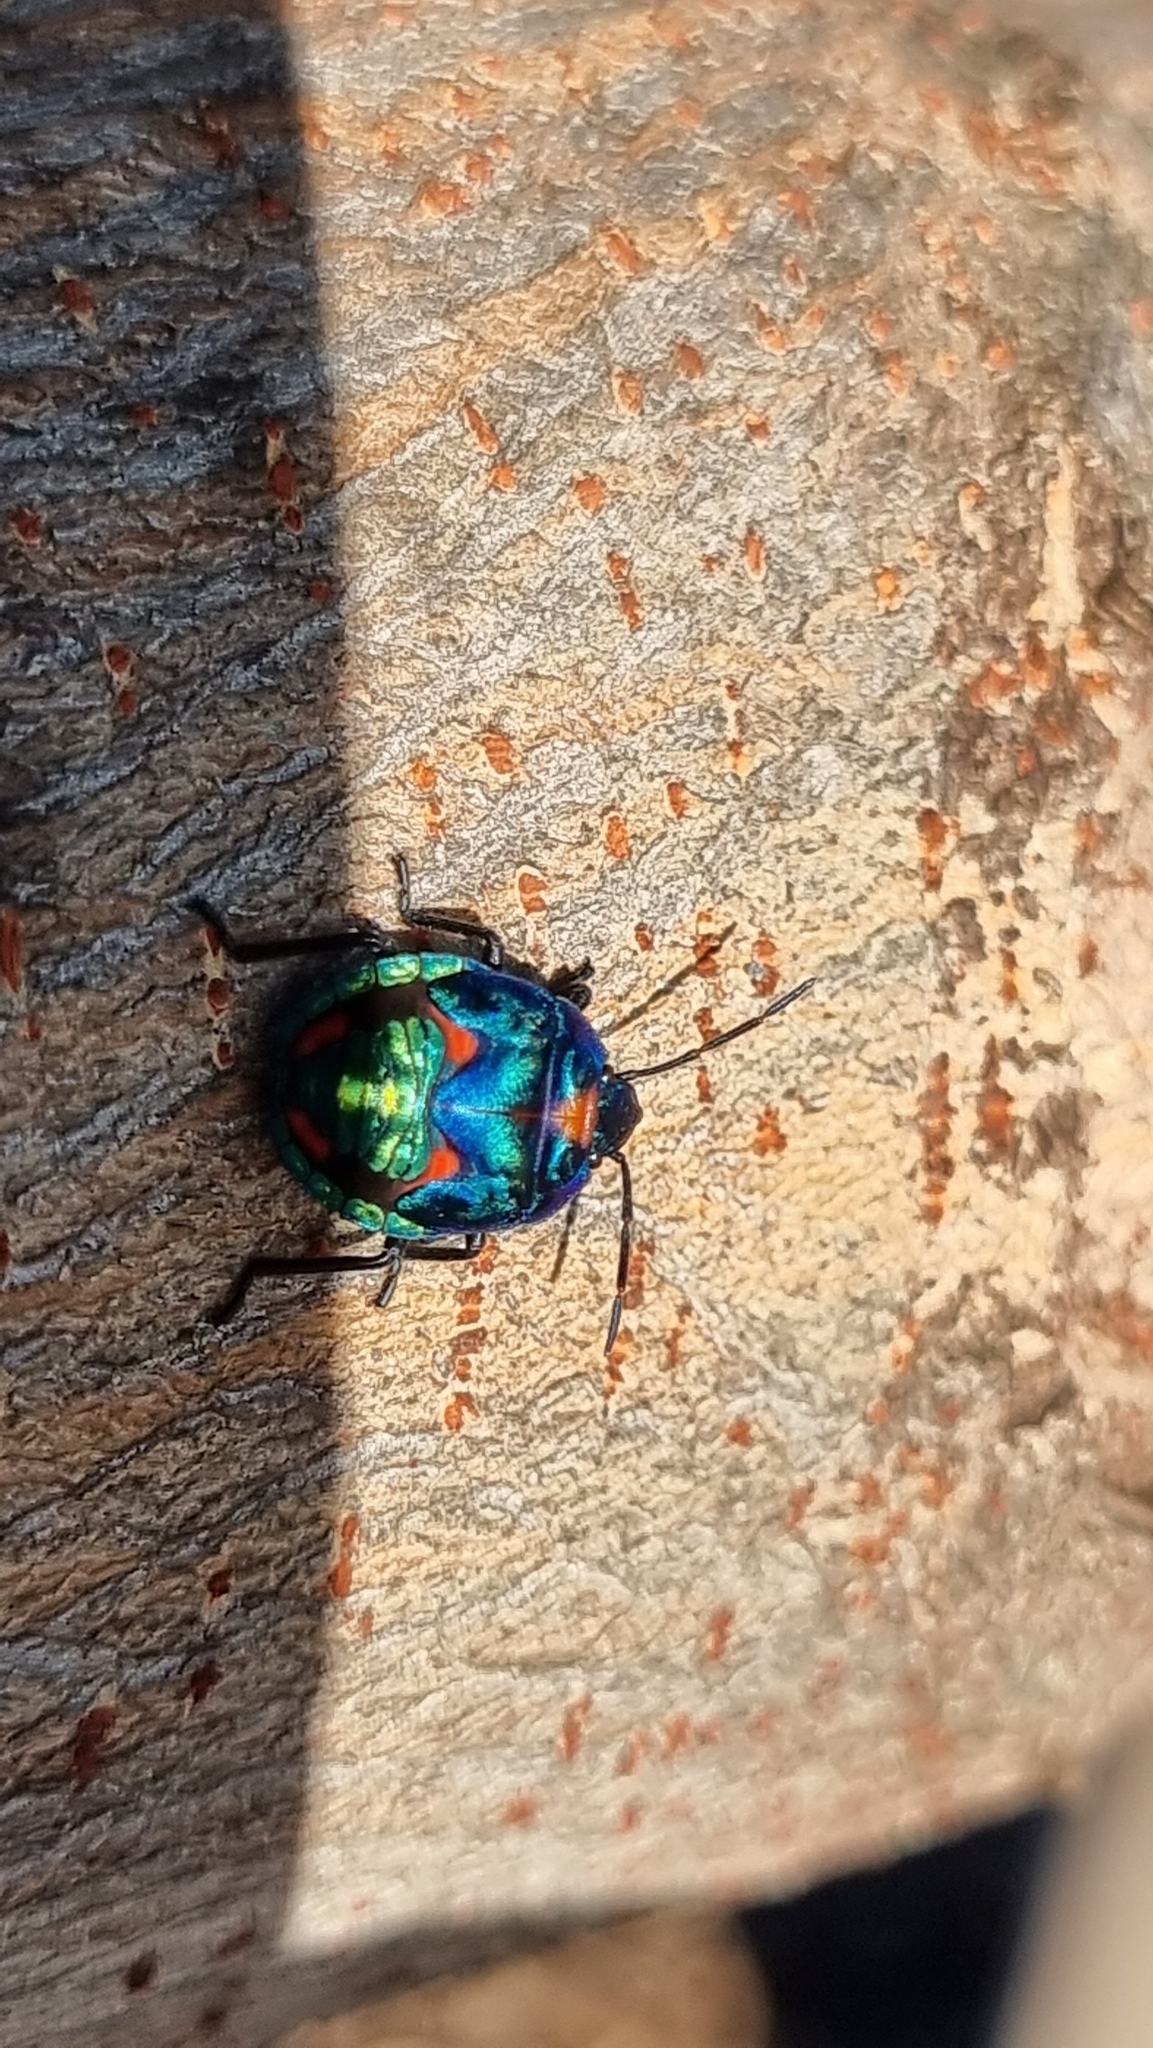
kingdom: Animalia
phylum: Arthropoda
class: Insecta
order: Hemiptera
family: Scutelleridae
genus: Tectocoris
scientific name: Tectocoris diophthalmus
